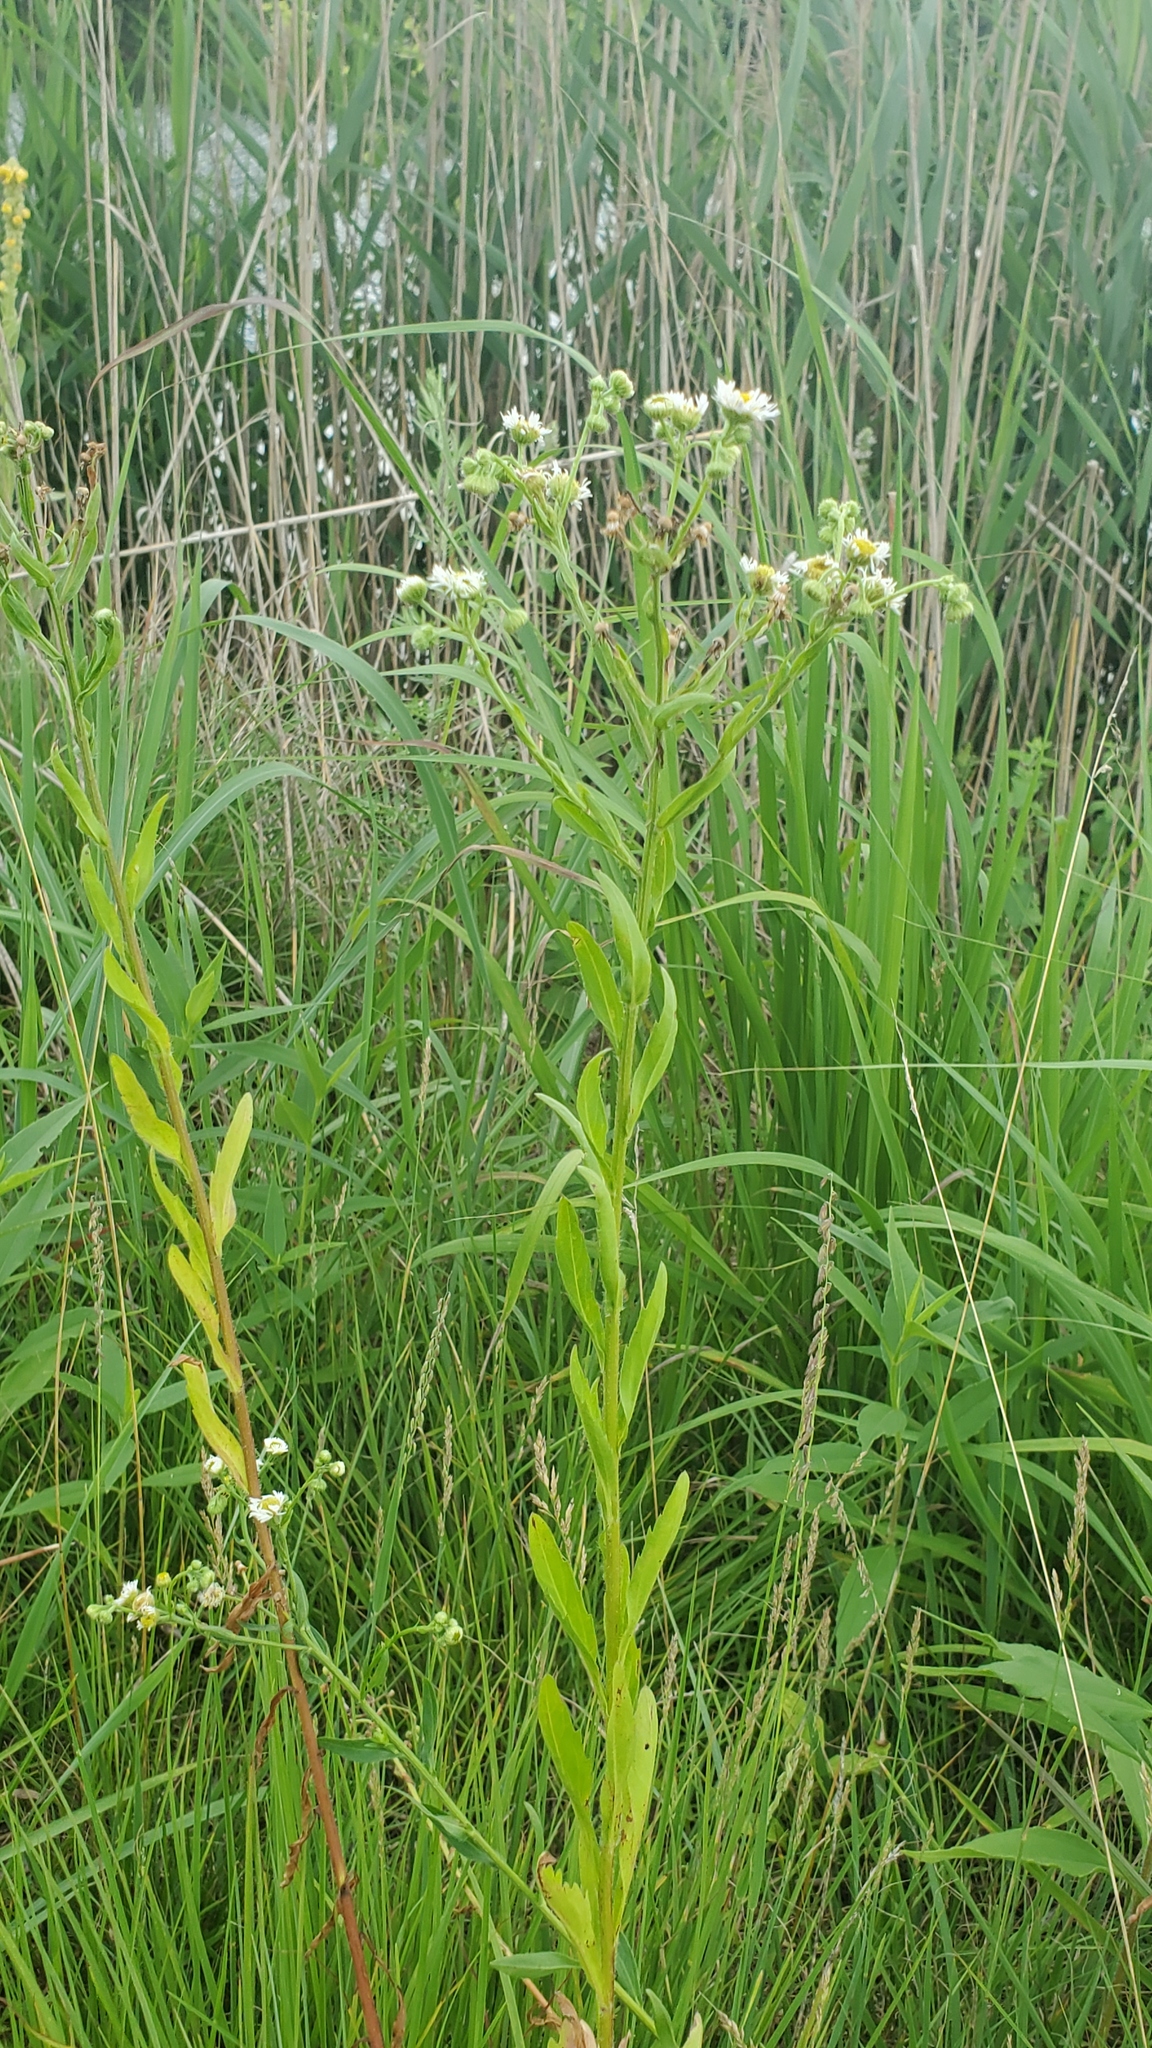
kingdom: Plantae
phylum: Tracheophyta
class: Magnoliopsida
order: Asterales
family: Asteraceae
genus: Erigeron
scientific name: Erigeron annuus
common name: Tall fleabane
